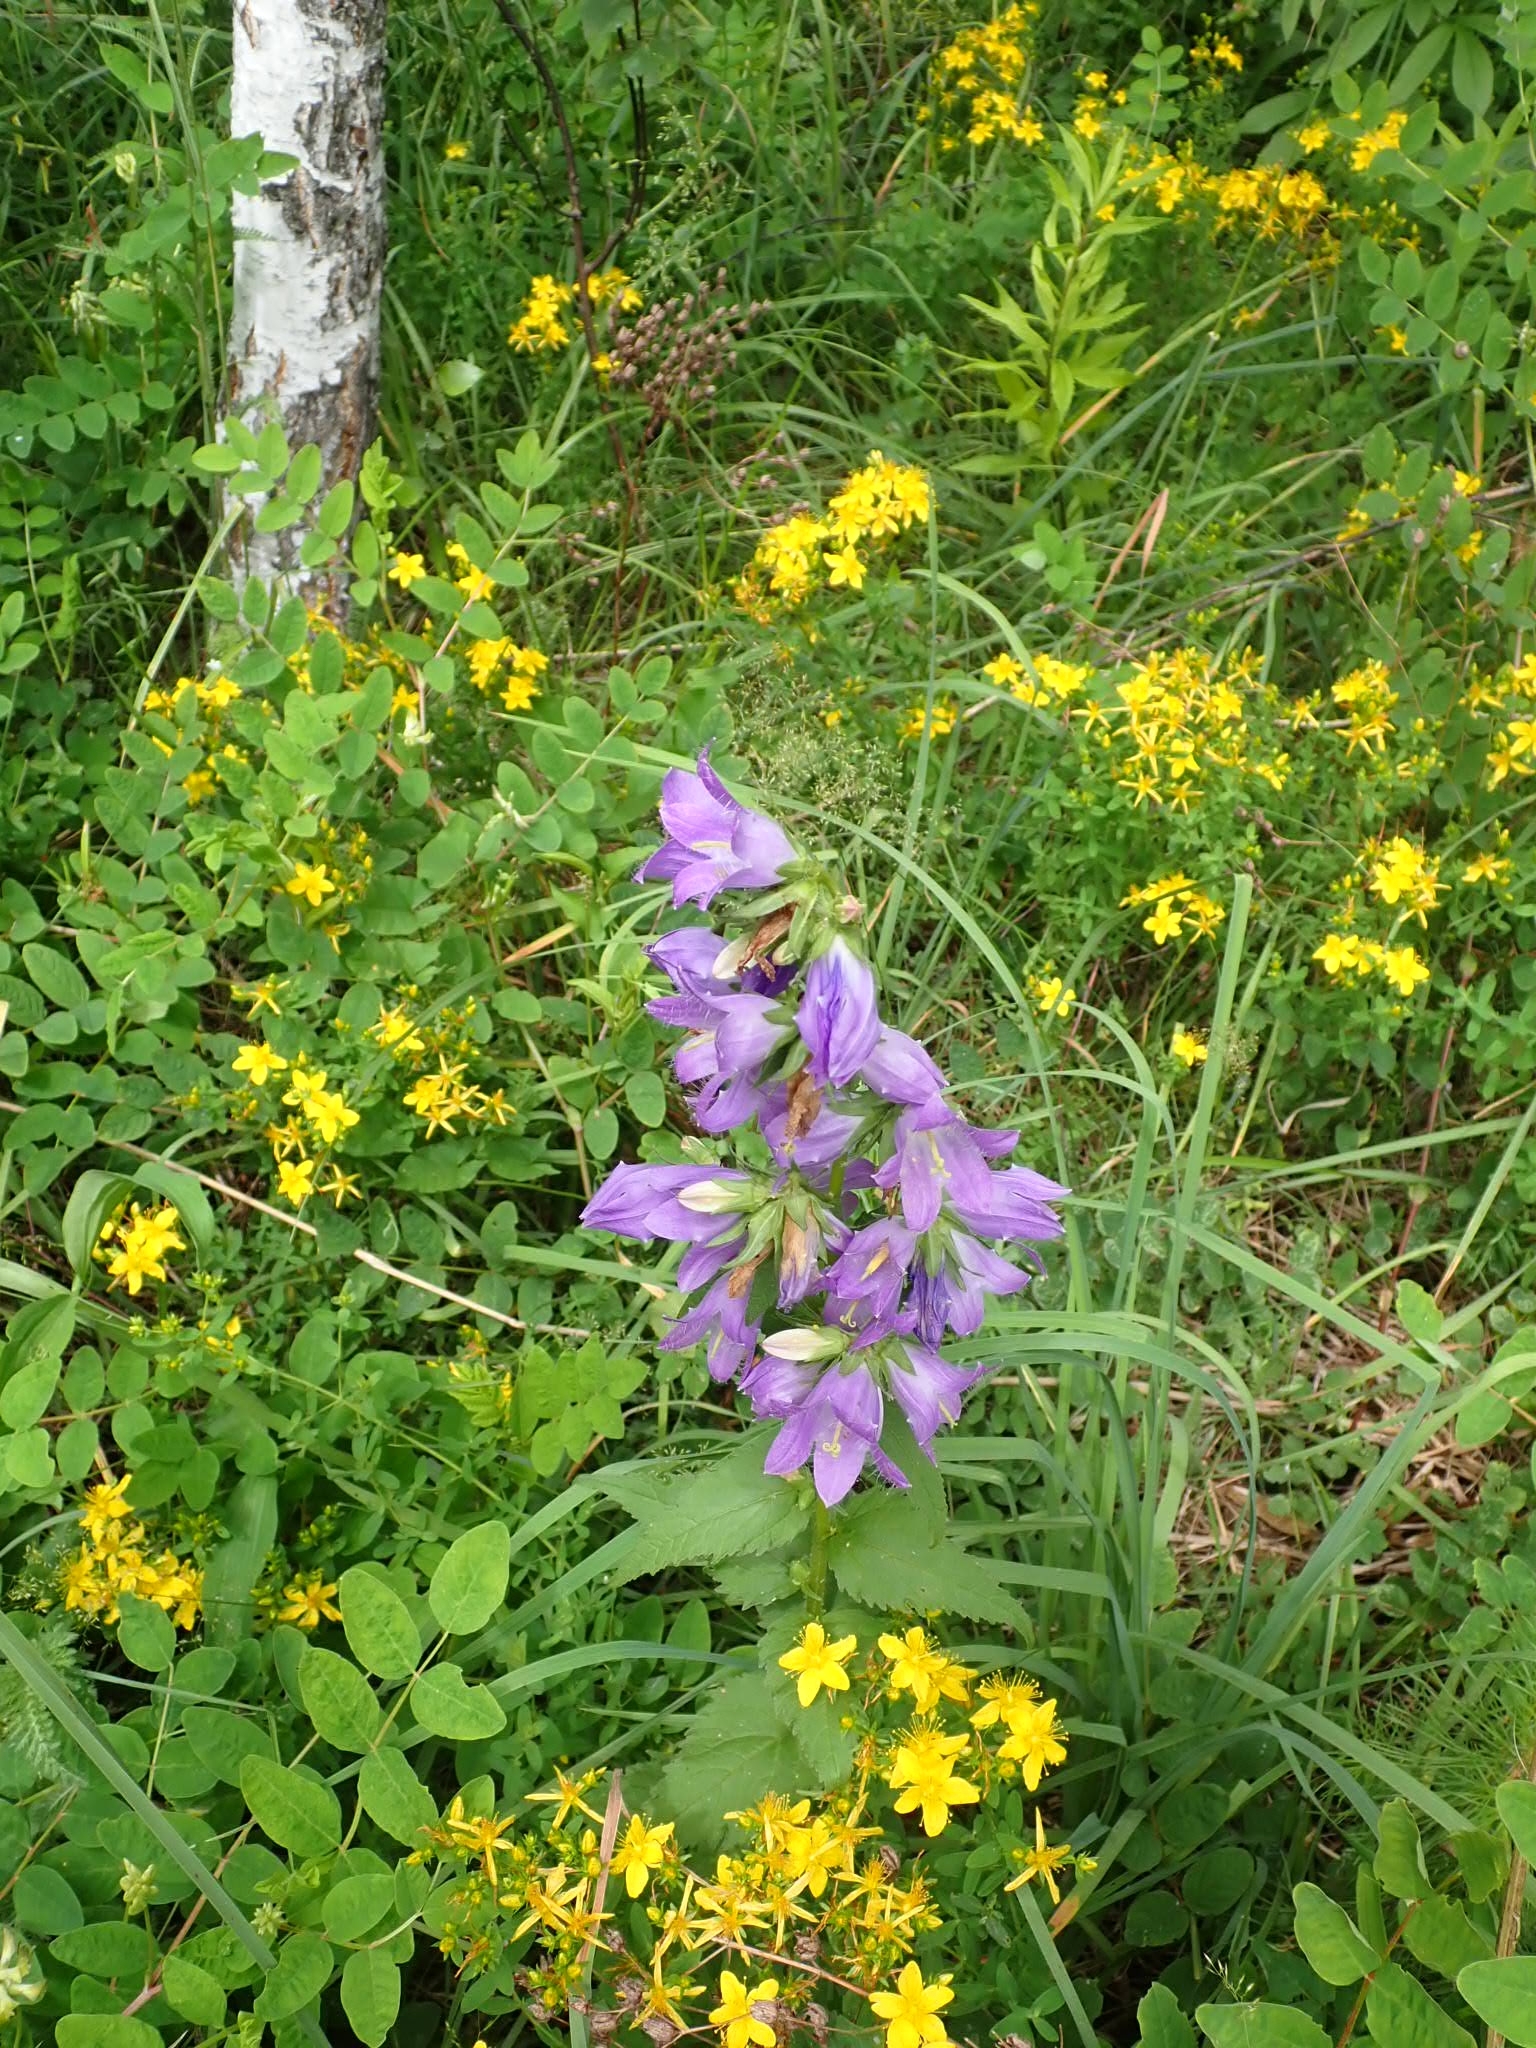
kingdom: Plantae
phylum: Tracheophyta
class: Magnoliopsida
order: Asterales
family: Campanulaceae
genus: Campanula
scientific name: Campanula trachelium
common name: Nettle-leaved bellflower
